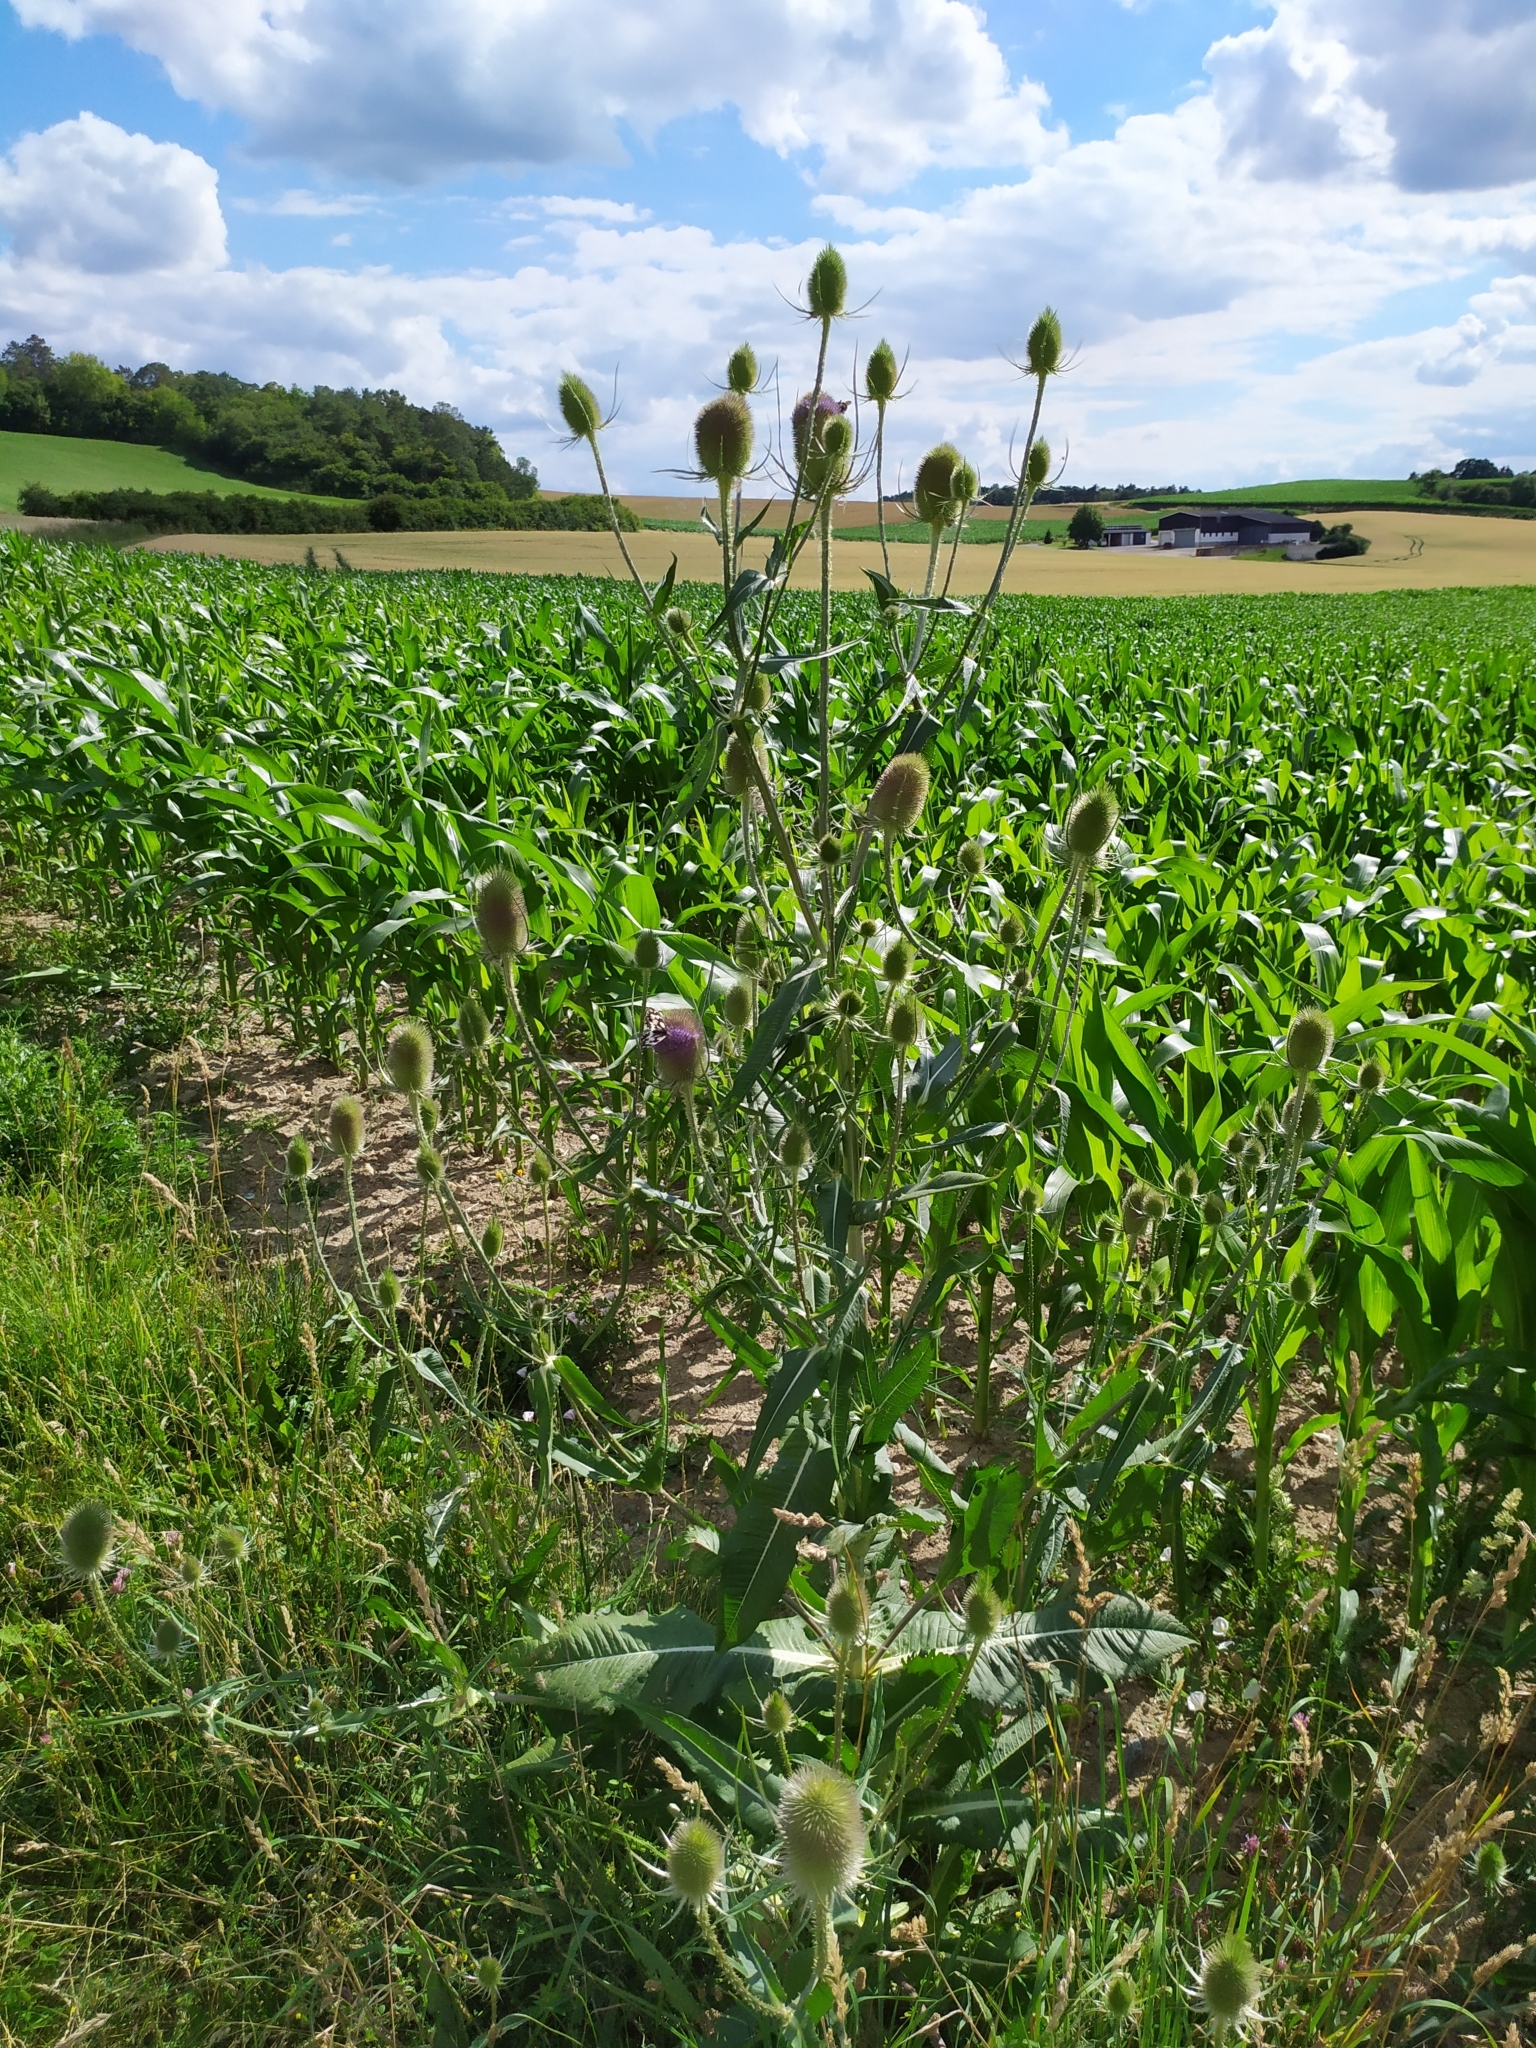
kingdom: Plantae
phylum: Tracheophyta
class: Magnoliopsida
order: Dipsacales
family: Caprifoliaceae
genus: Dipsacus
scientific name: Dipsacus fullonum
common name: Teasel
